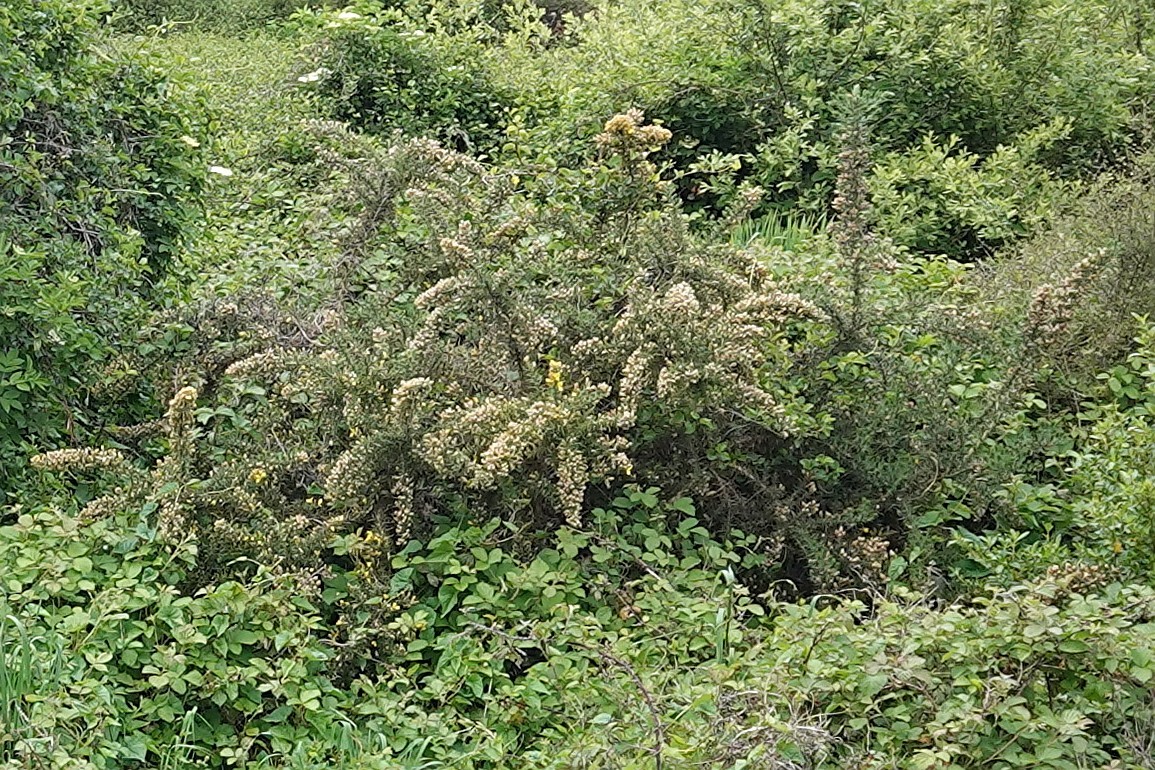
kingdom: Plantae
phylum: Tracheophyta
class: Magnoliopsida
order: Fabales
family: Fabaceae
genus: Ulex
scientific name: Ulex europaeus
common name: Common gorse
